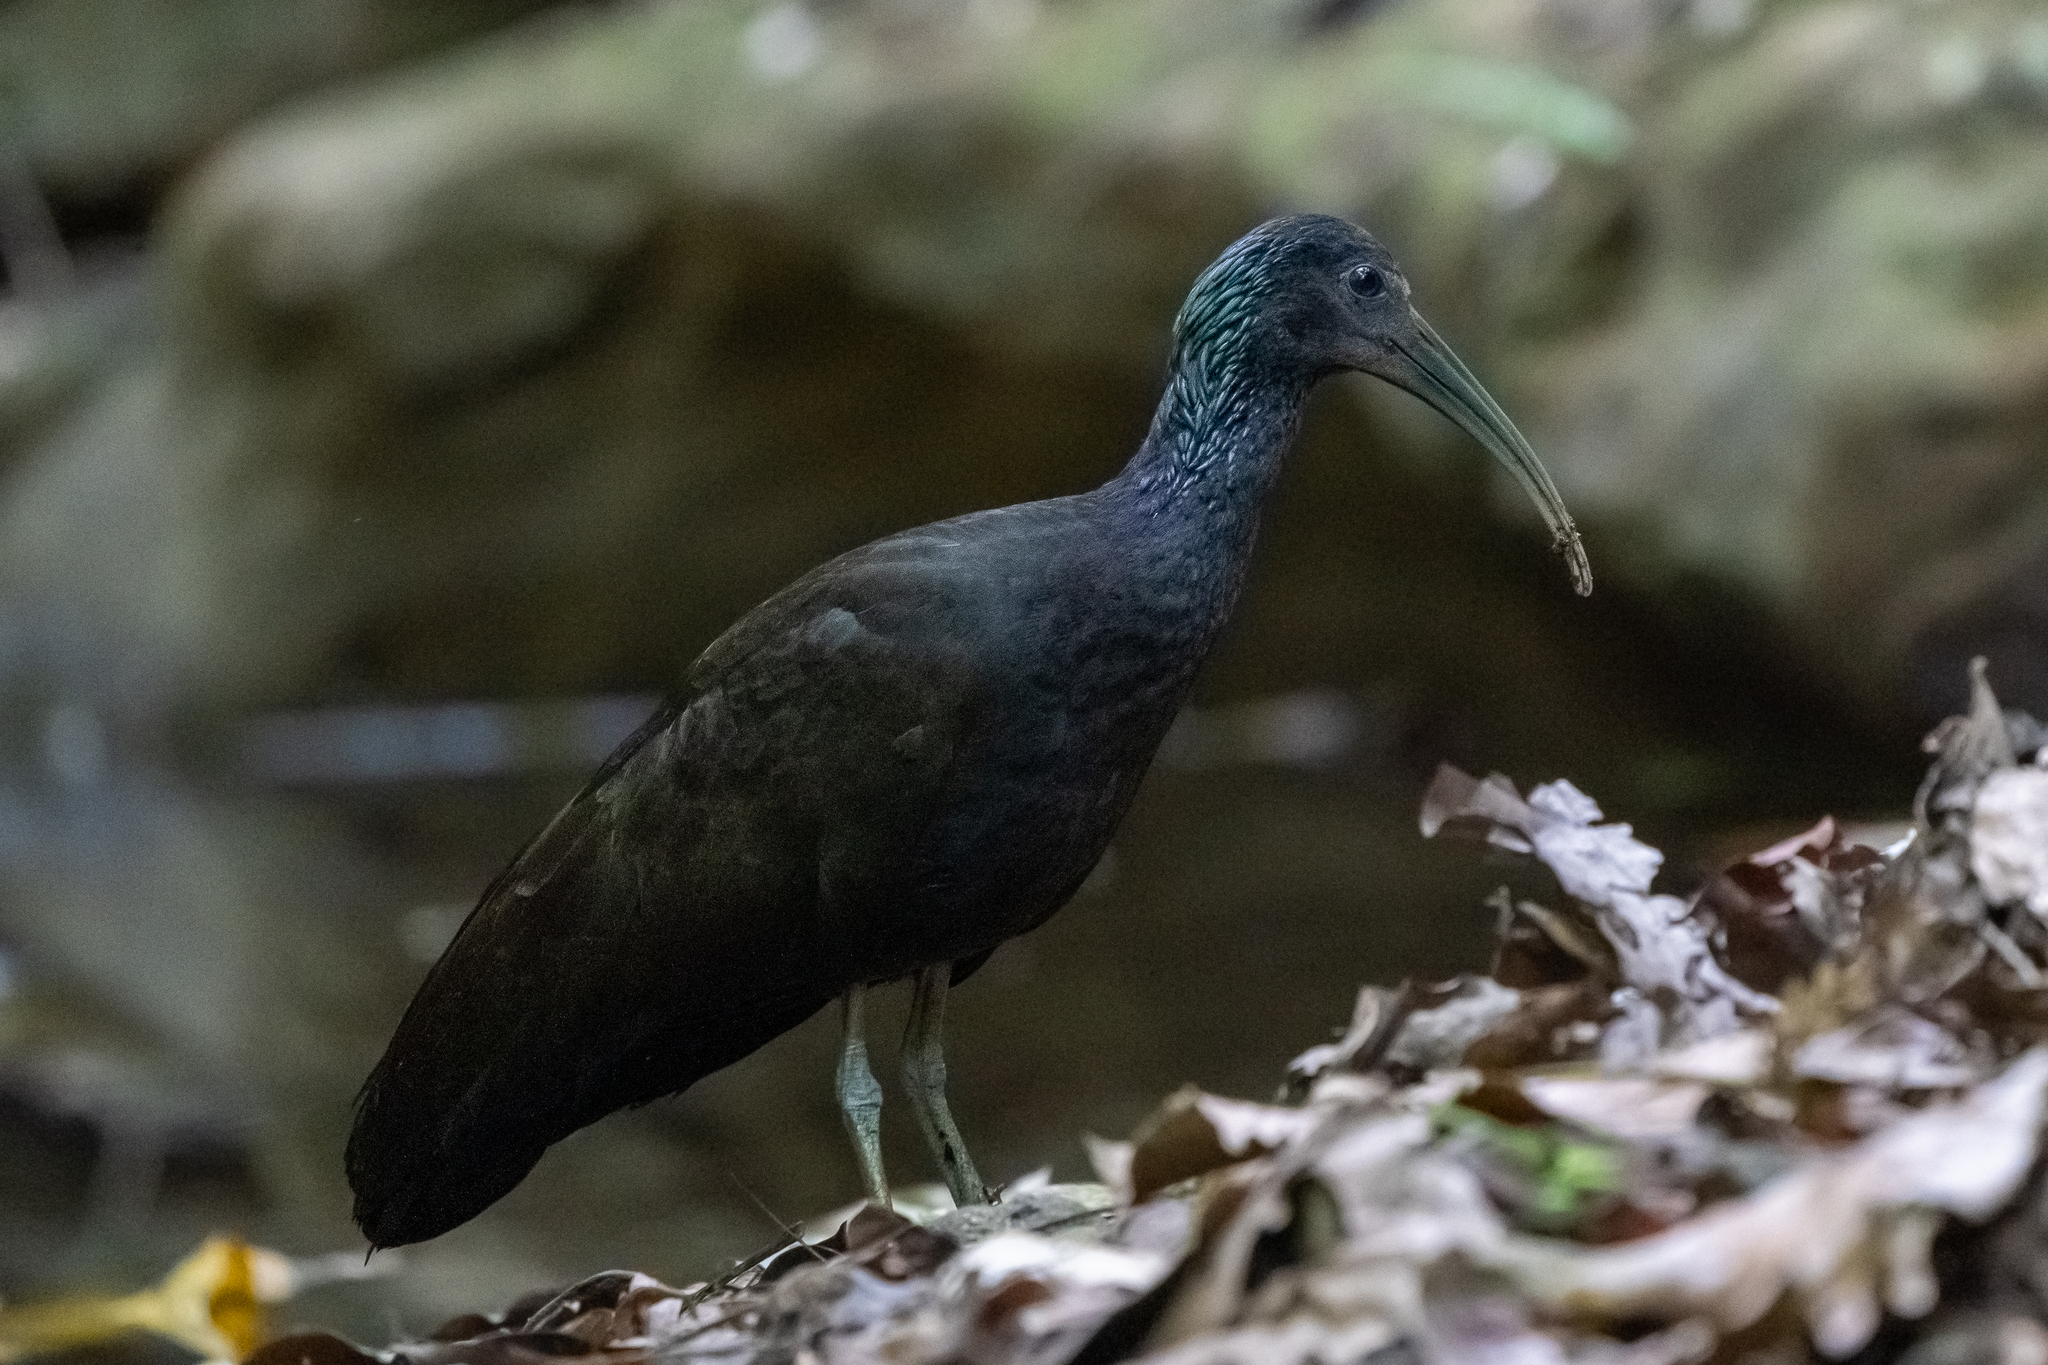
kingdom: Animalia
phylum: Chordata
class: Aves
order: Pelecaniformes
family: Threskiornithidae
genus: Mesembrinibis
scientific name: Mesembrinibis cayennensis
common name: Green ibis
